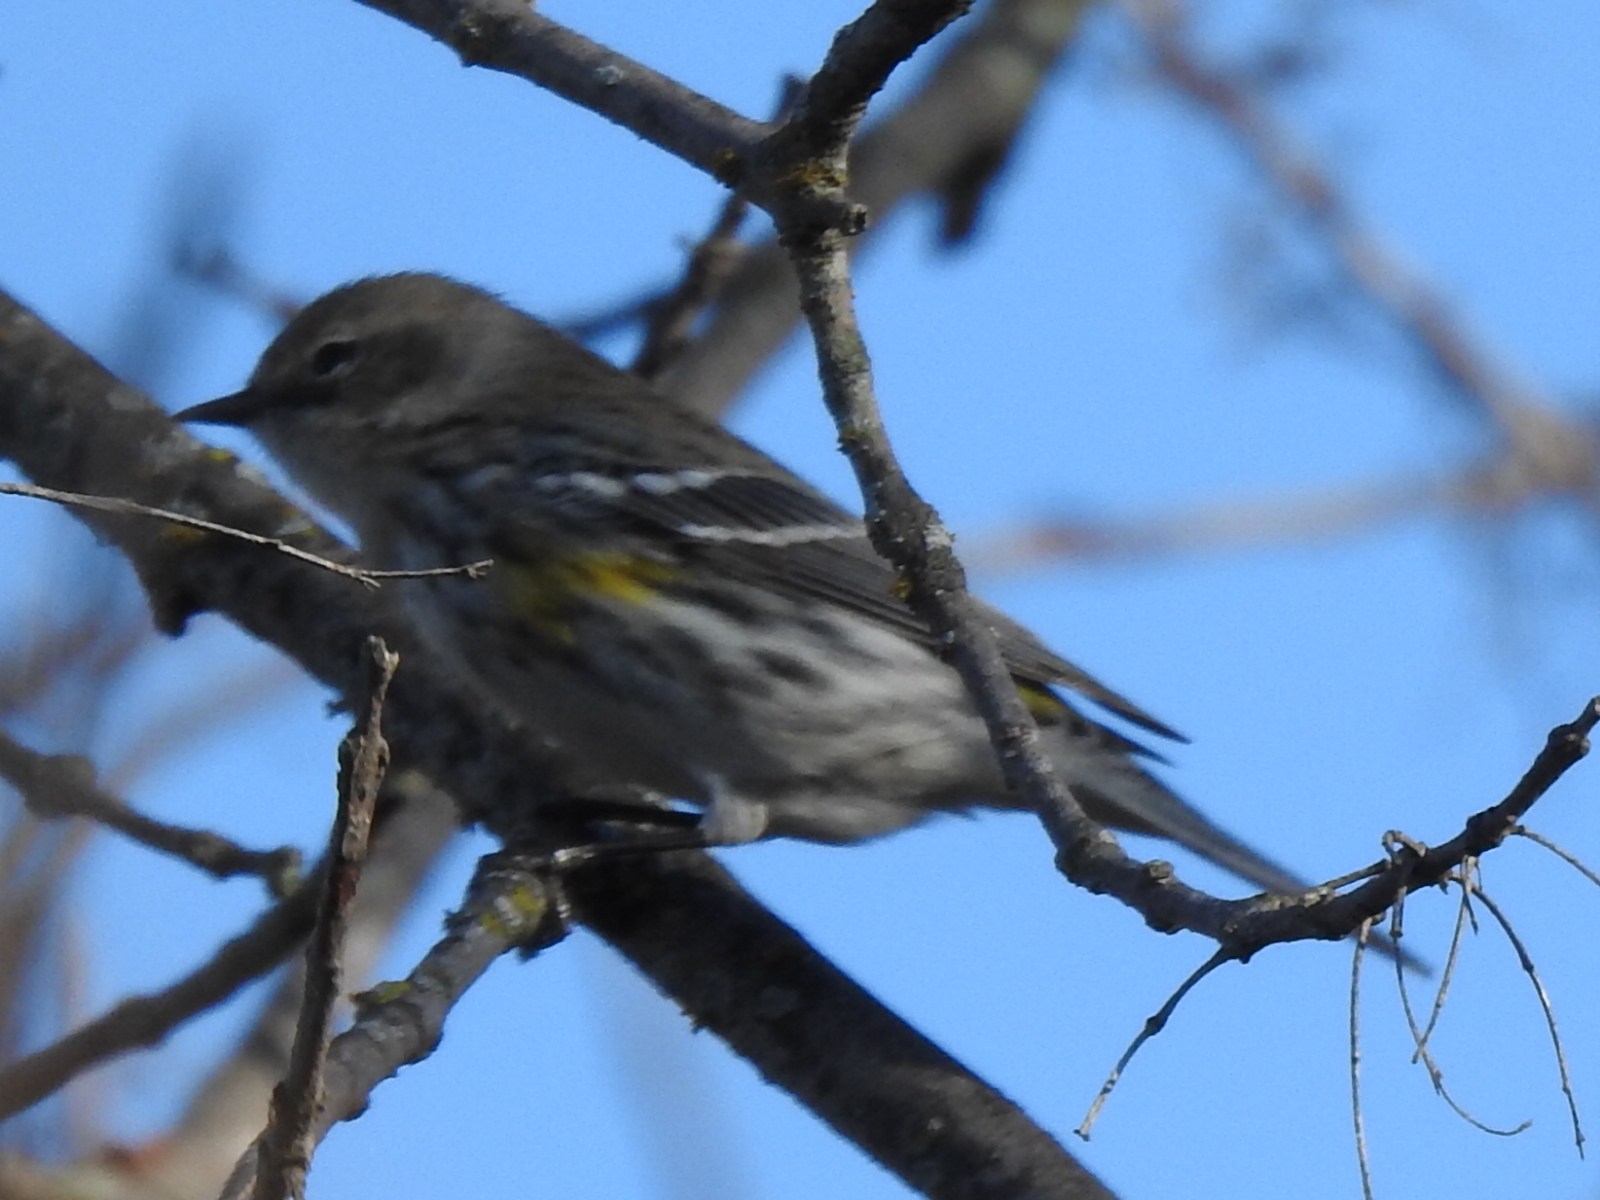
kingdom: Animalia
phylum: Chordata
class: Aves
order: Passeriformes
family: Parulidae
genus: Setophaga
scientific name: Setophaga coronata
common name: Myrtle warbler
